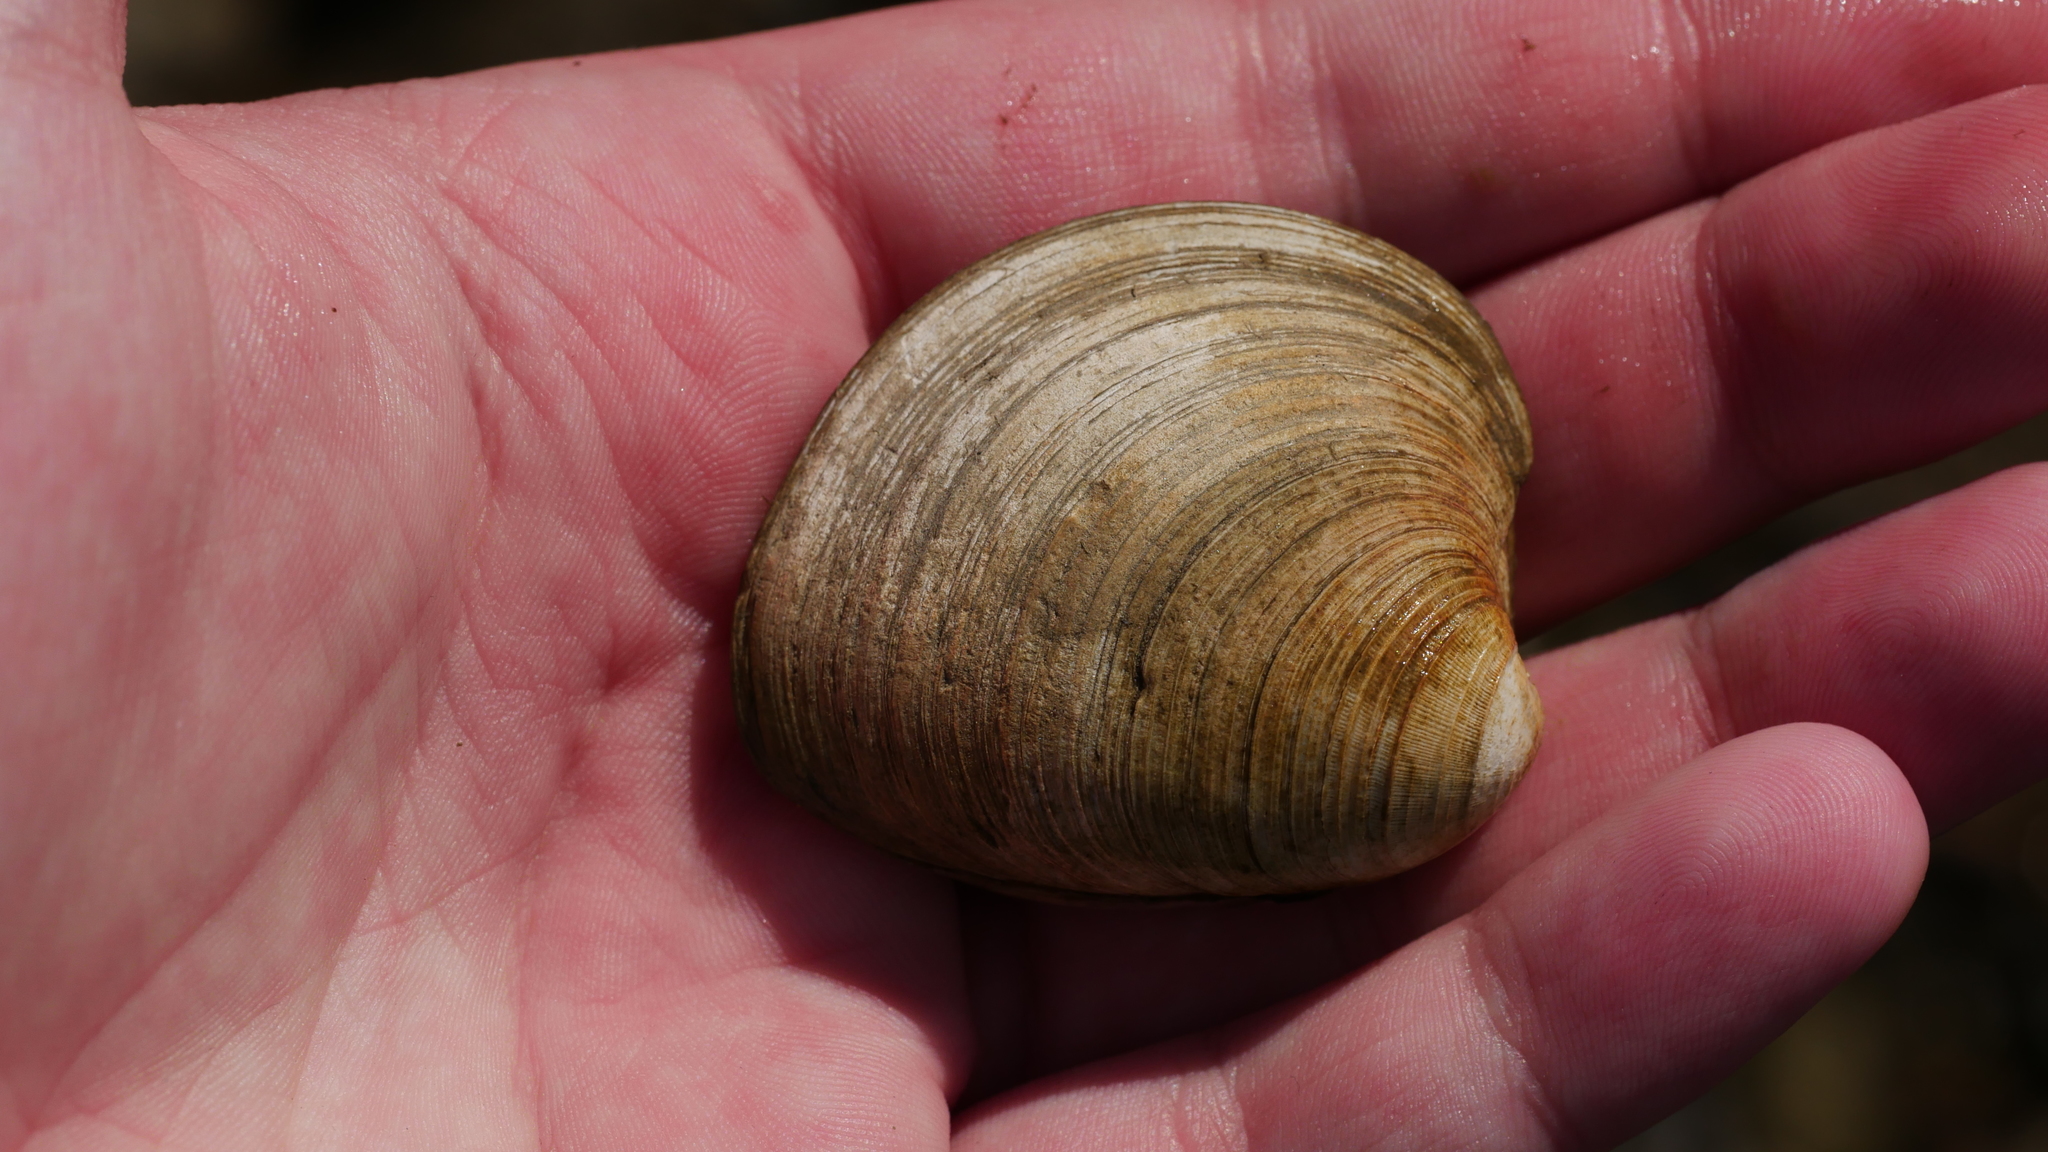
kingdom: Animalia
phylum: Mollusca
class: Bivalvia
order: Venerida
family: Veneridae
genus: Mercenaria
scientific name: Mercenaria mercenaria
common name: American hard-shelled clam
